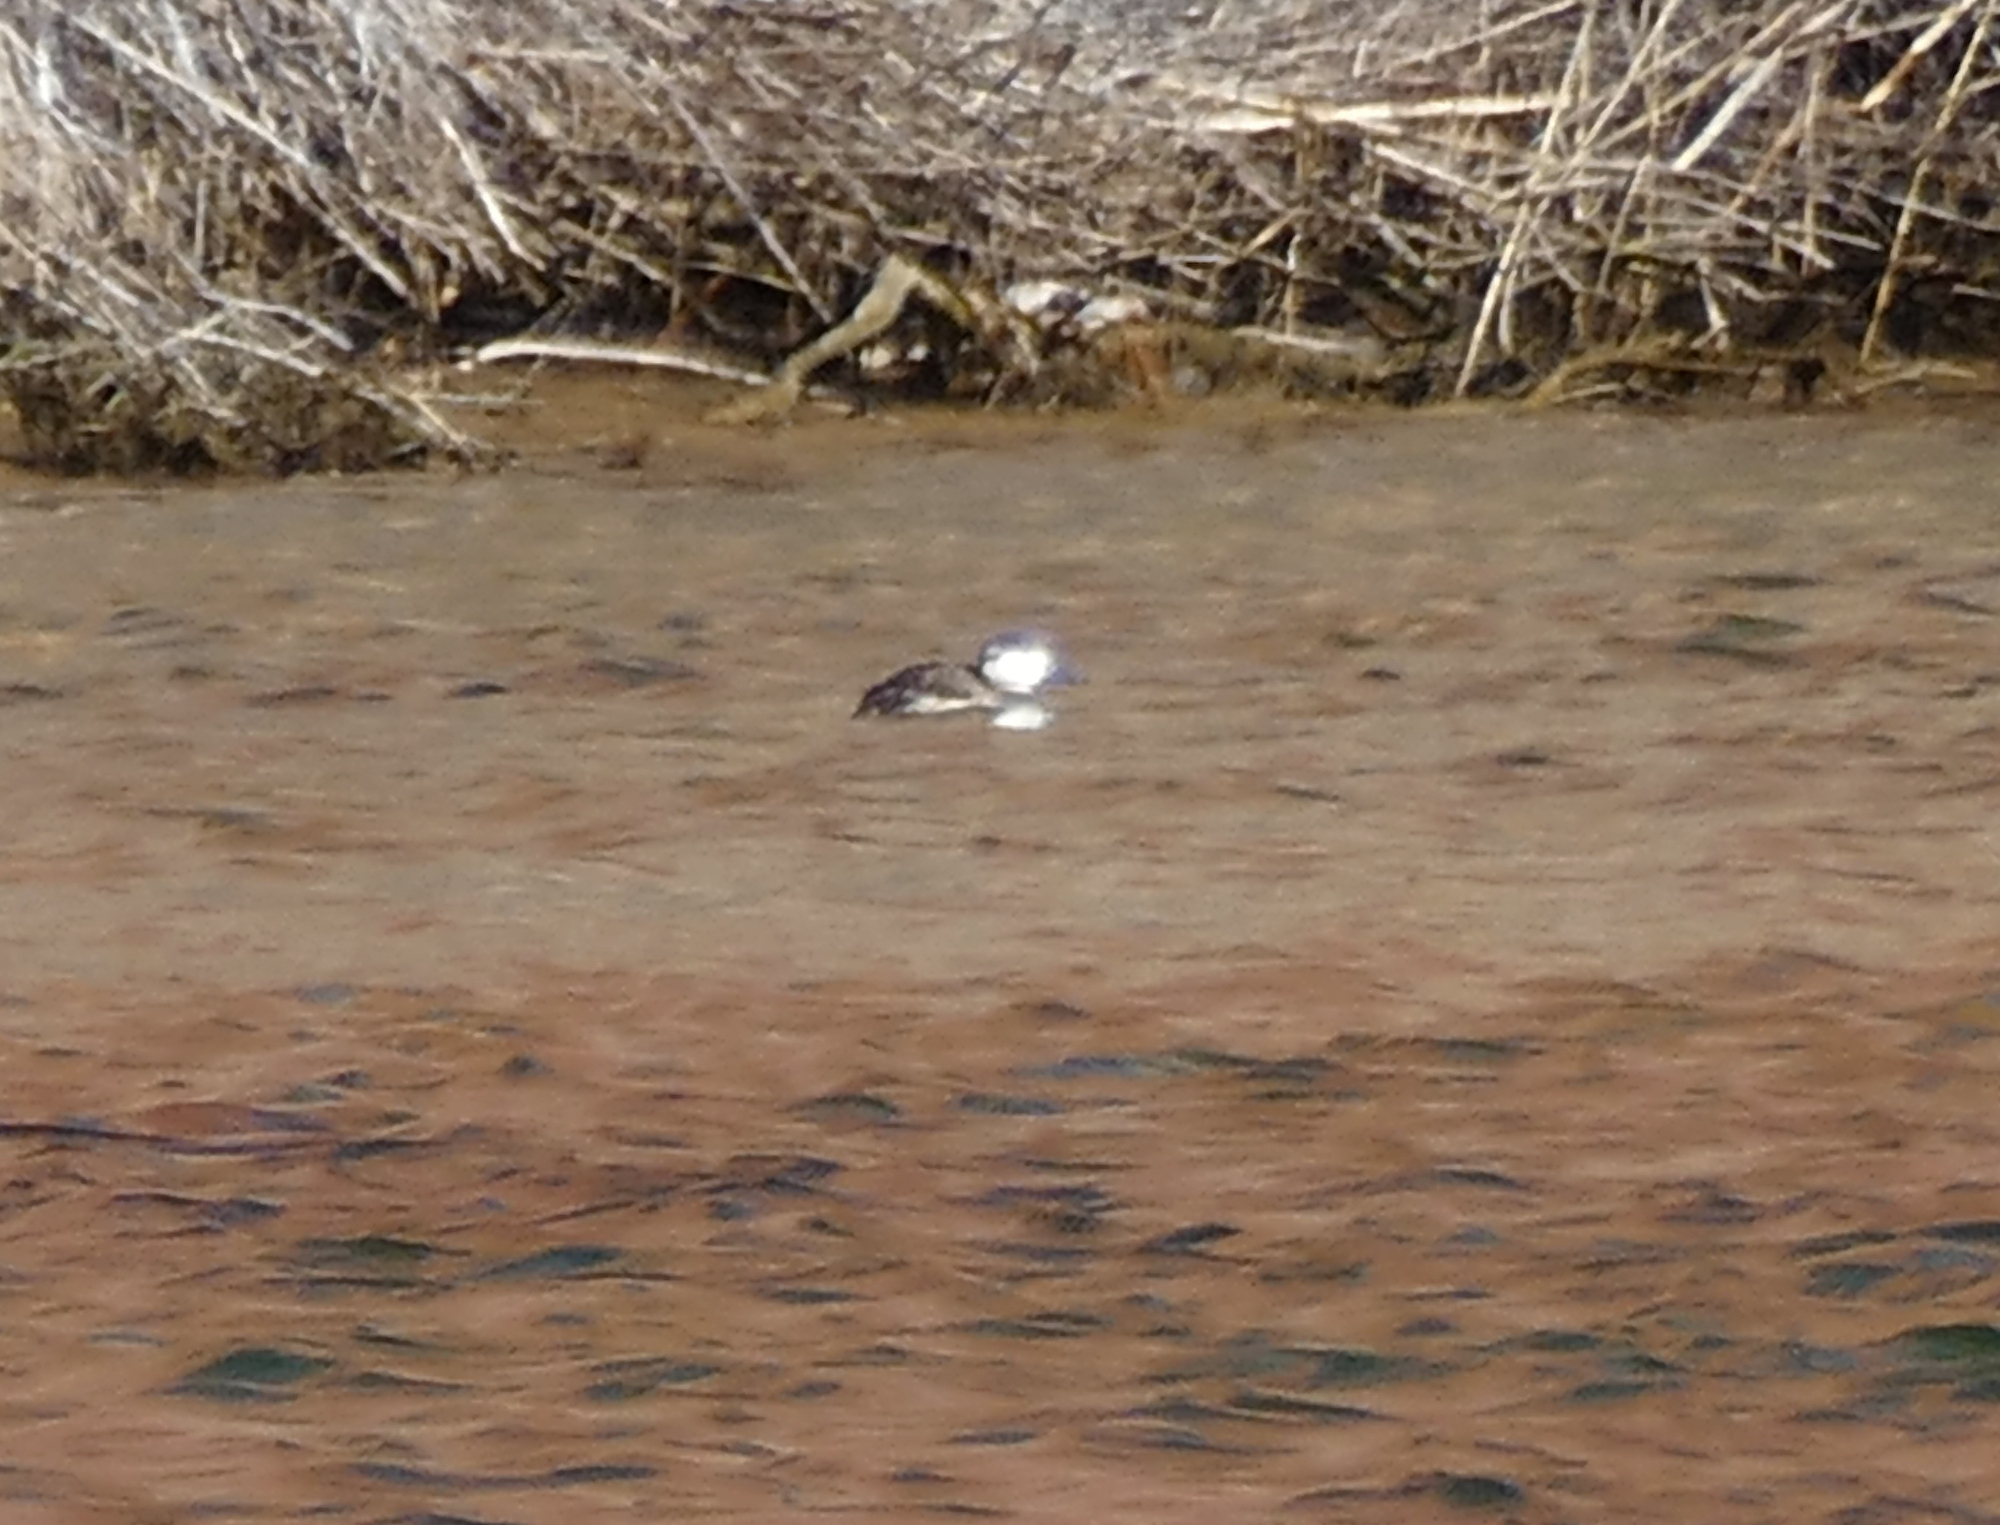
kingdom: Animalia
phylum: Chordata
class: Aves
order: Anseriformes
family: Anatidae
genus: Oxyura
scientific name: Oxyura jamaicensis
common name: Ruddy duck
